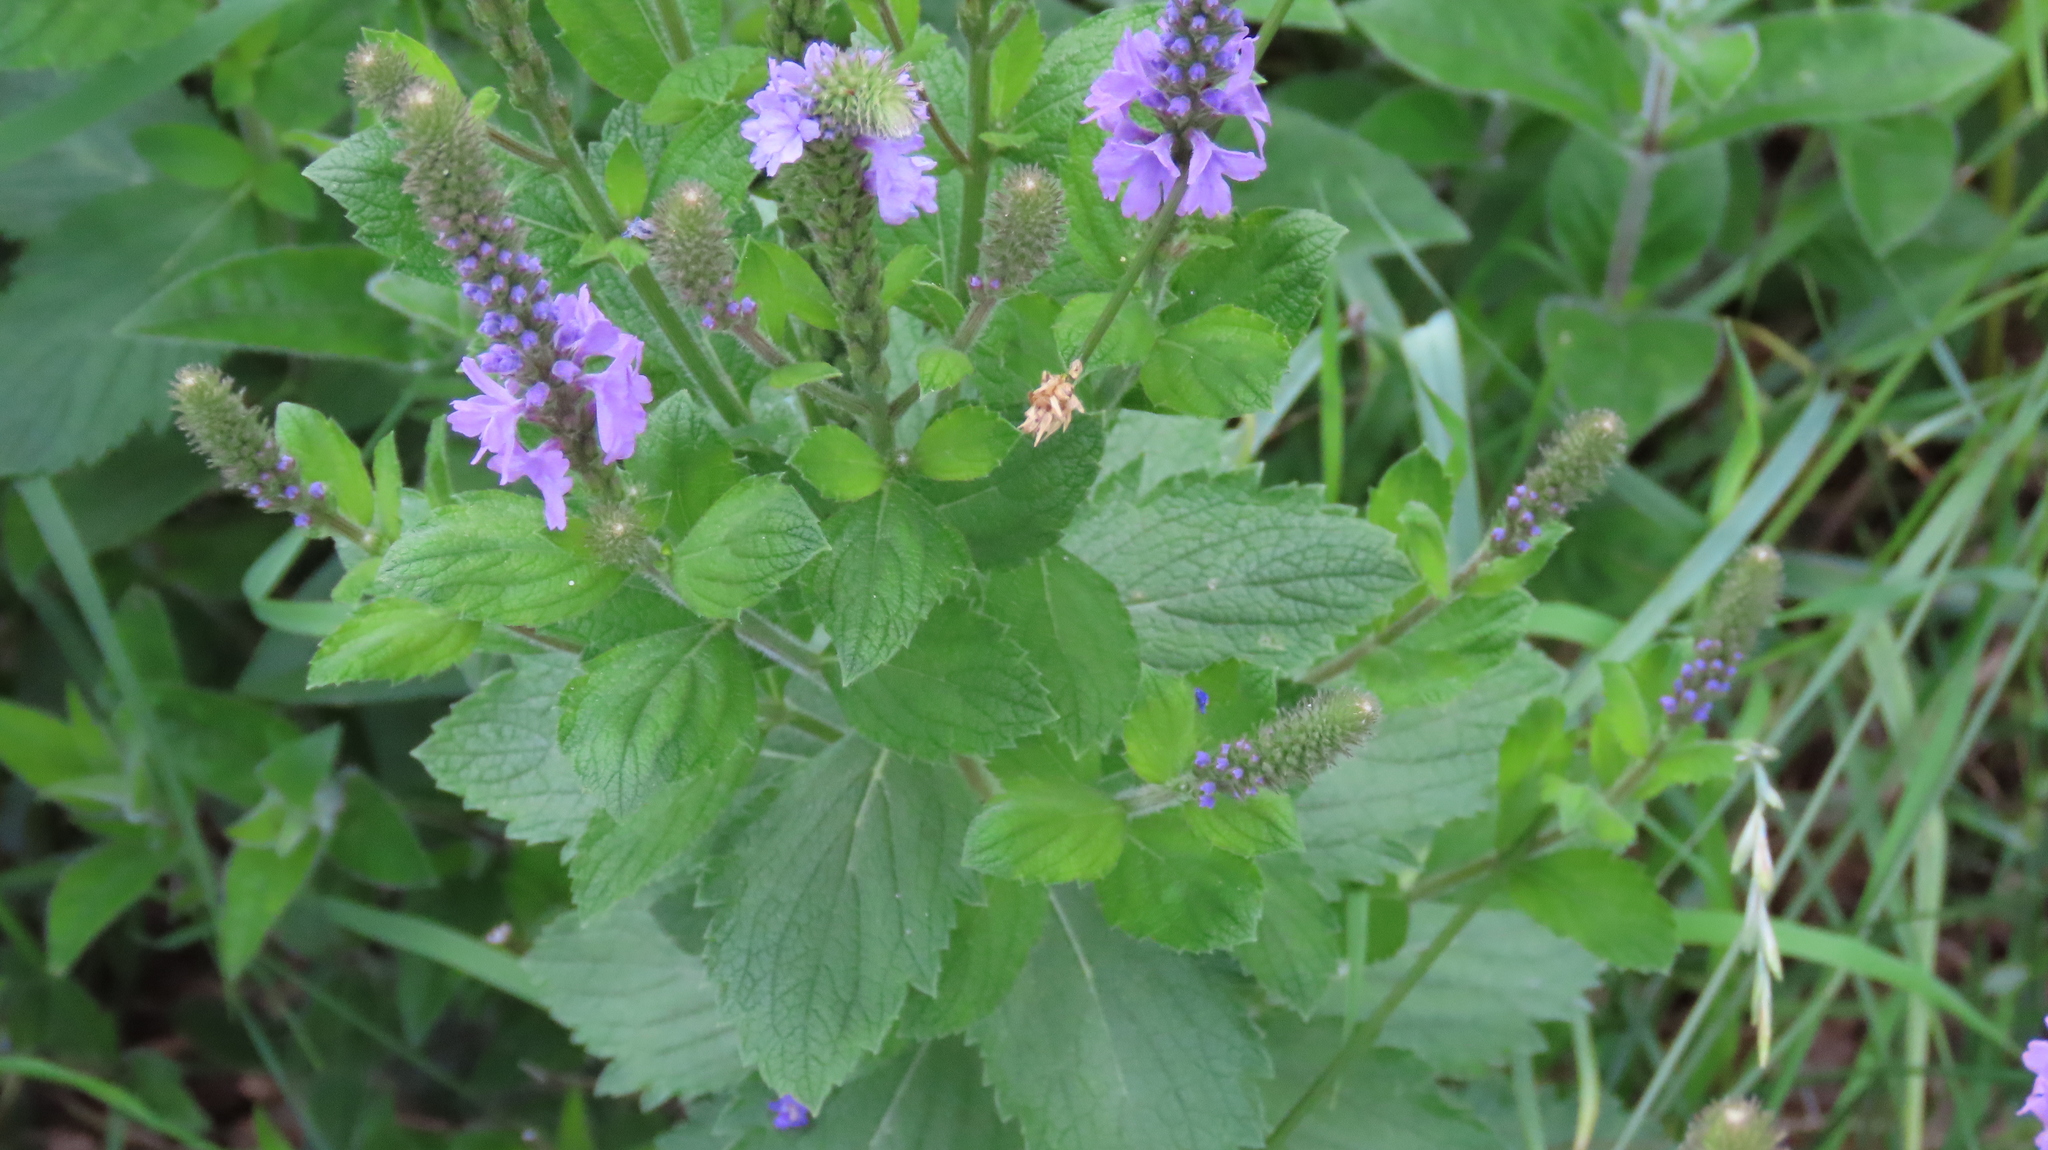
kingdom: Plantae
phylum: Tracheophyta
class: Magnoliopsida
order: Lamiales
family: Verbenaceae
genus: Verbena
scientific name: Verbena stricta
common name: Hoary vervain
